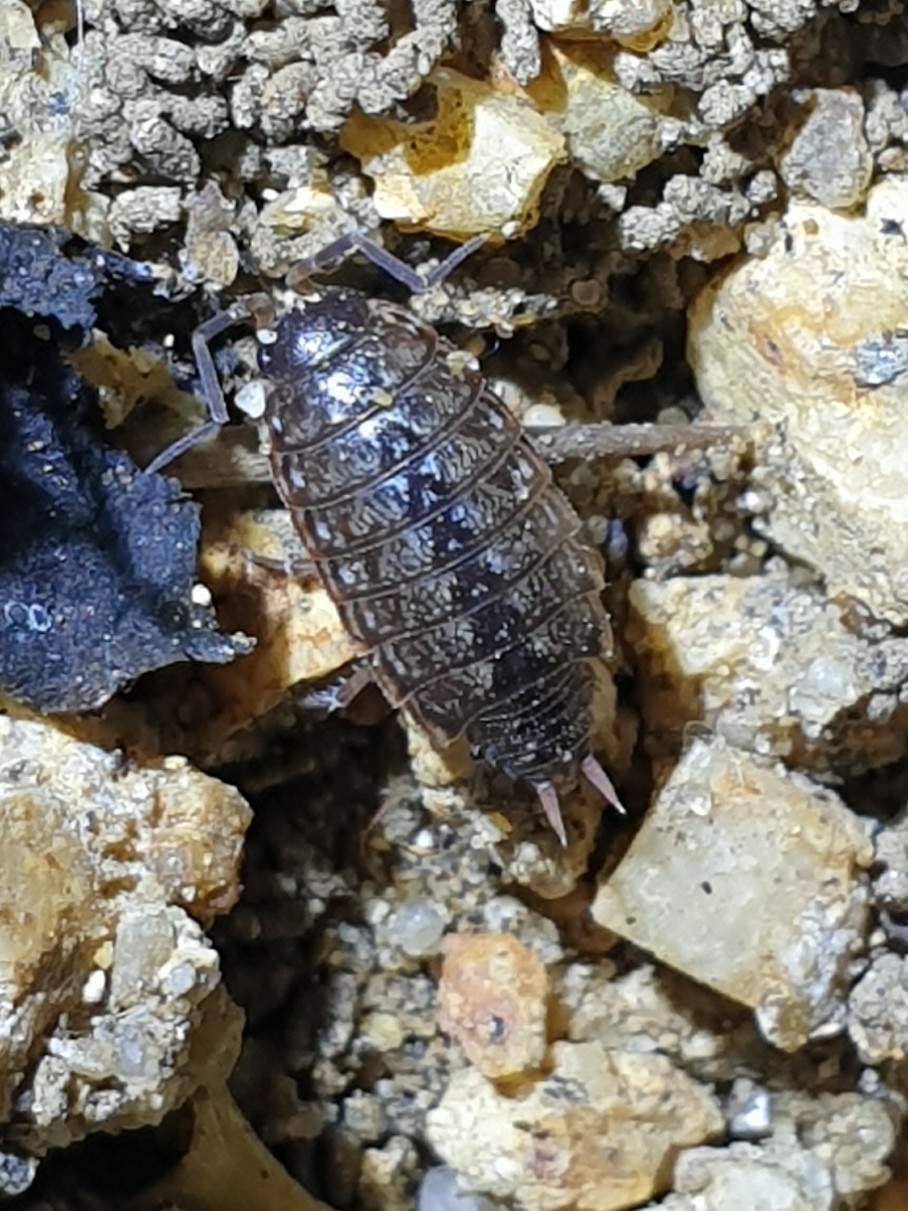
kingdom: Animalia
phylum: Arthropoda
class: Malacostraca
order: Isopoda
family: Philosciidae
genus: Philoscia
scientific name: Philoscia muscorum
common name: Common striped woodlouse
